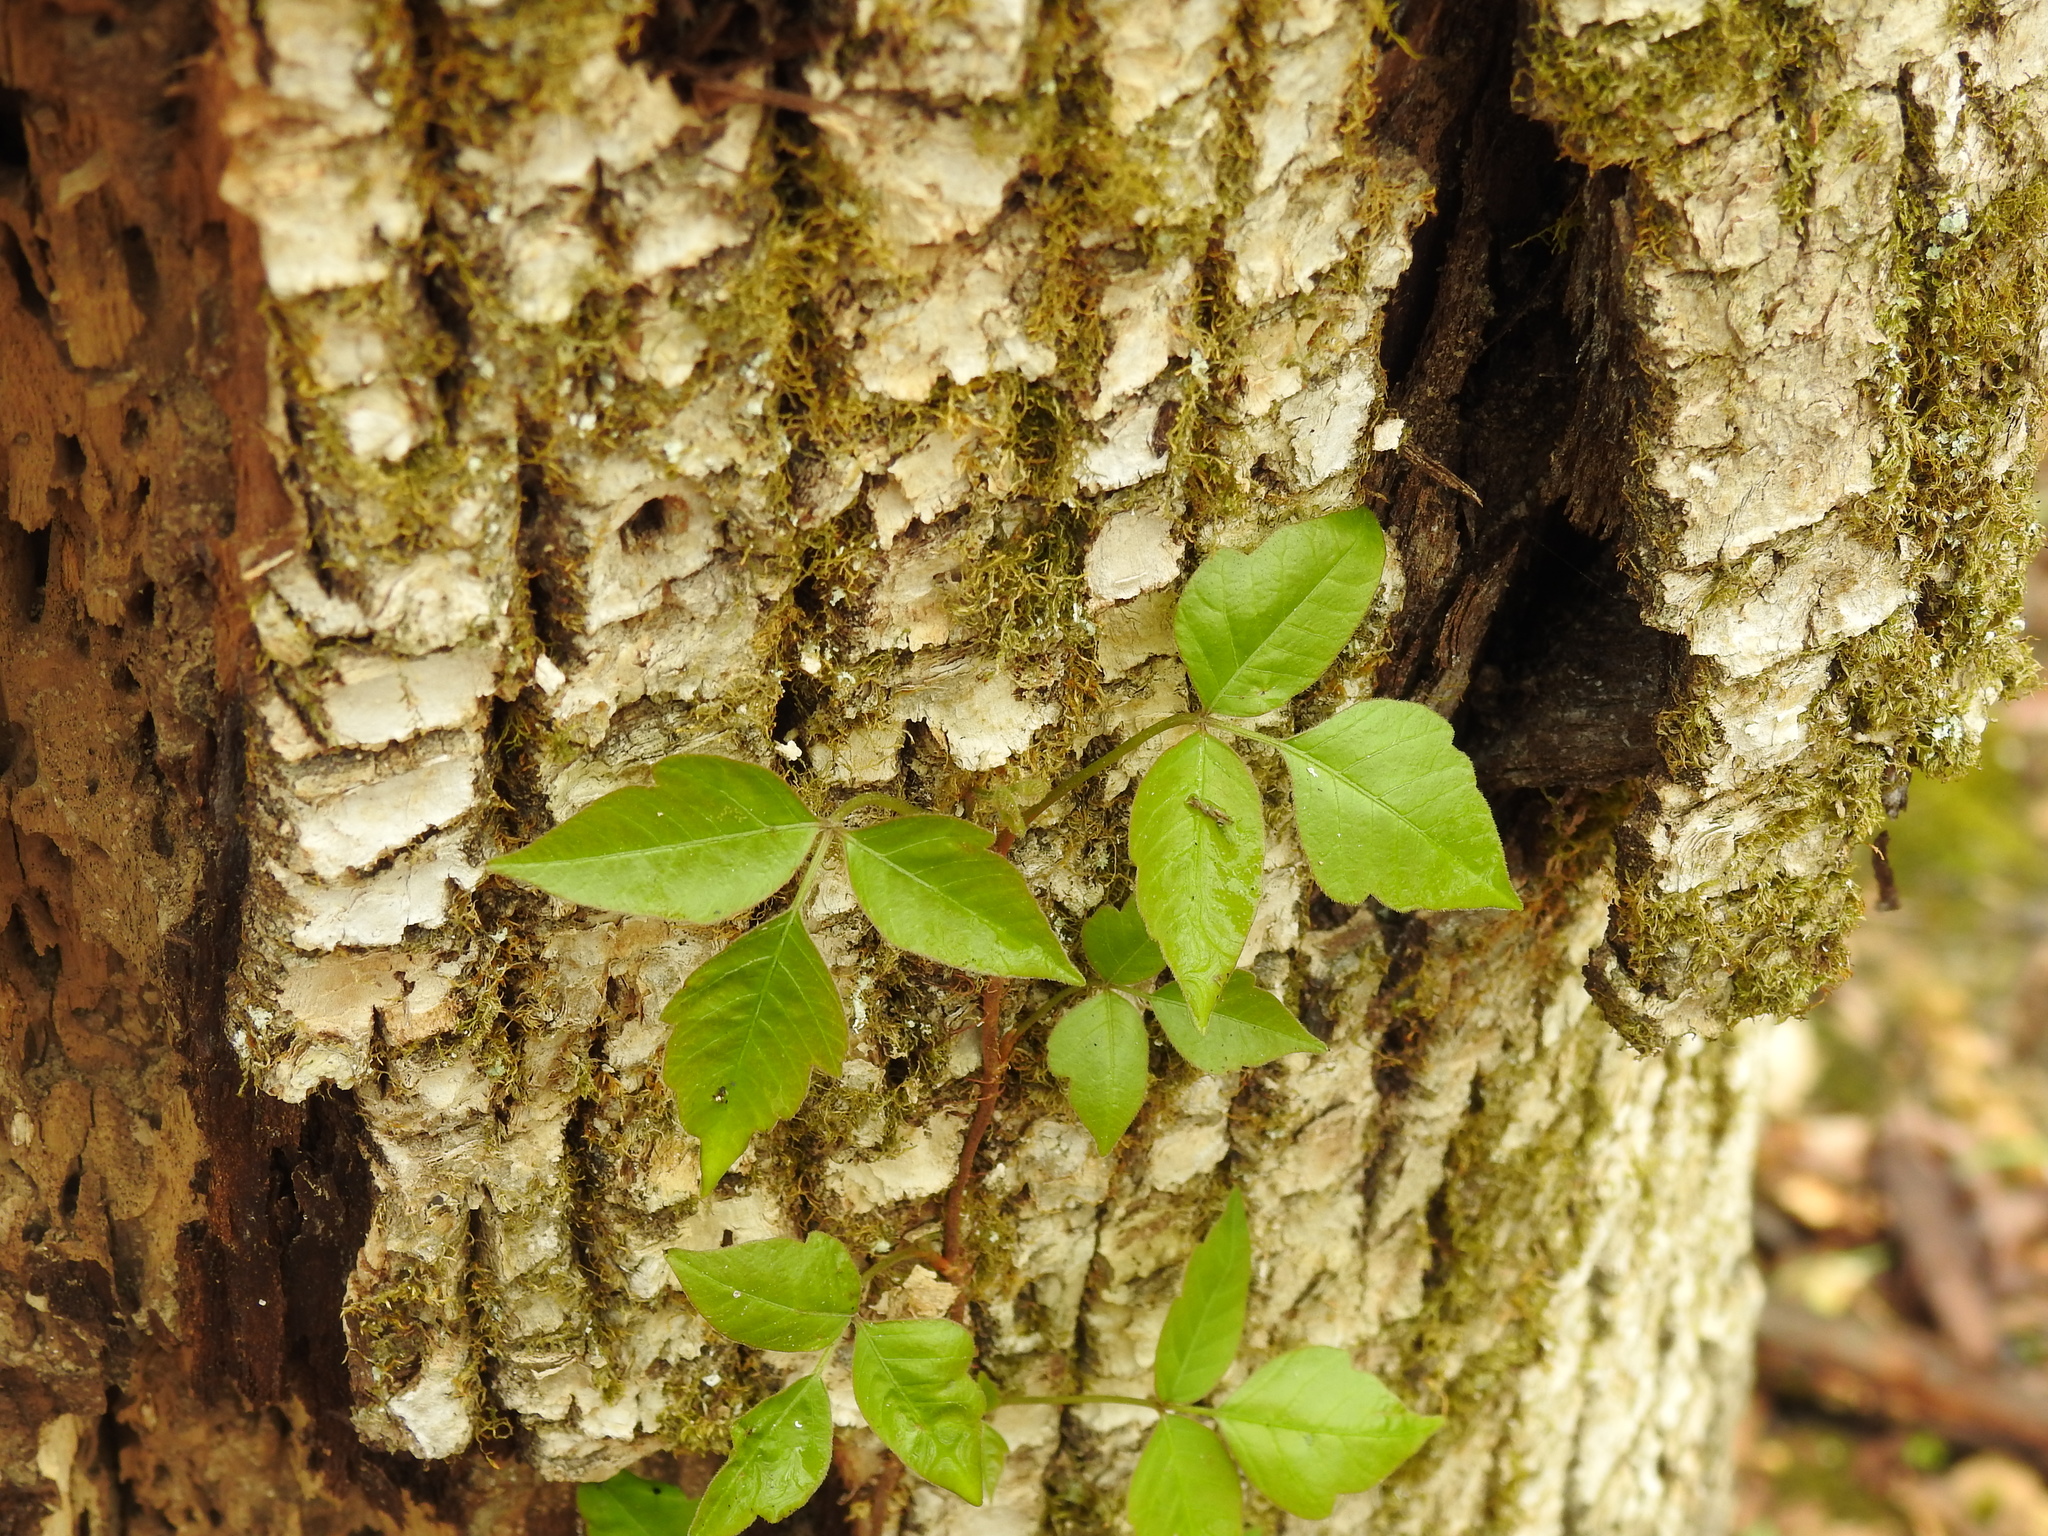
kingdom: Plantae
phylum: Tracheophyta
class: Magnoliopsida
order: Sapindales
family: Anacardiaceae
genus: Toxicodendron
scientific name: Toxicodendron radicans
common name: Poison ivy
